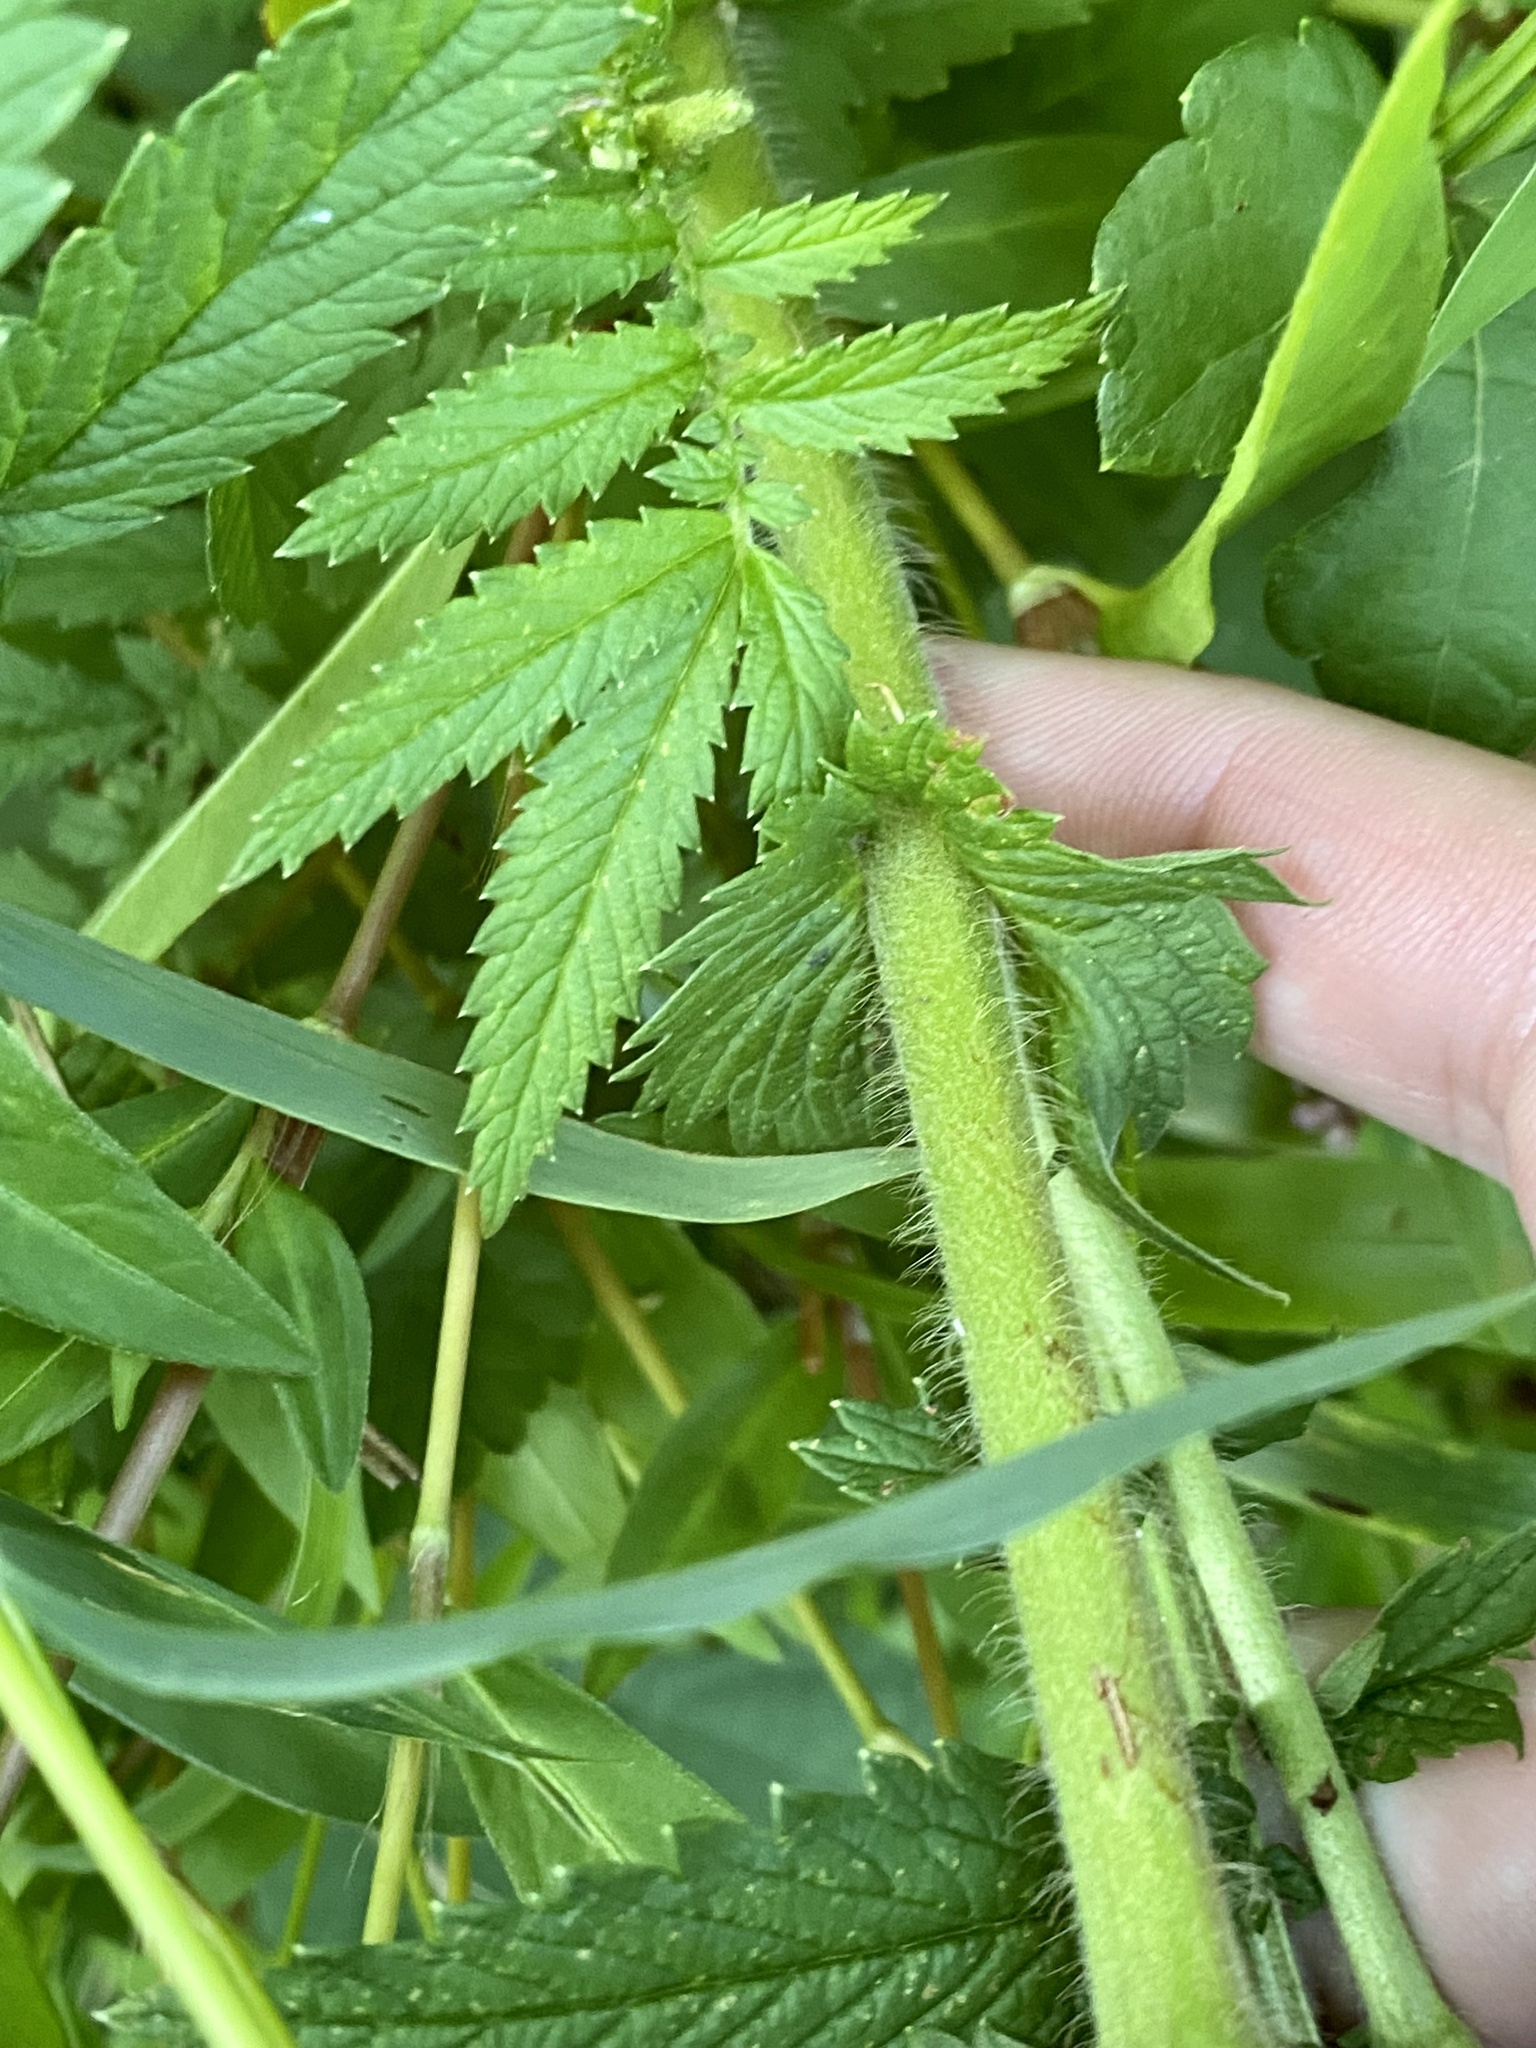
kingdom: Plantae
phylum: Tracheophyta
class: Magnoliopsida
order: Rosales
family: Rosaceae
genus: Agrimonia
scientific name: Agrimonia parviflora
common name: Harvest-lice
